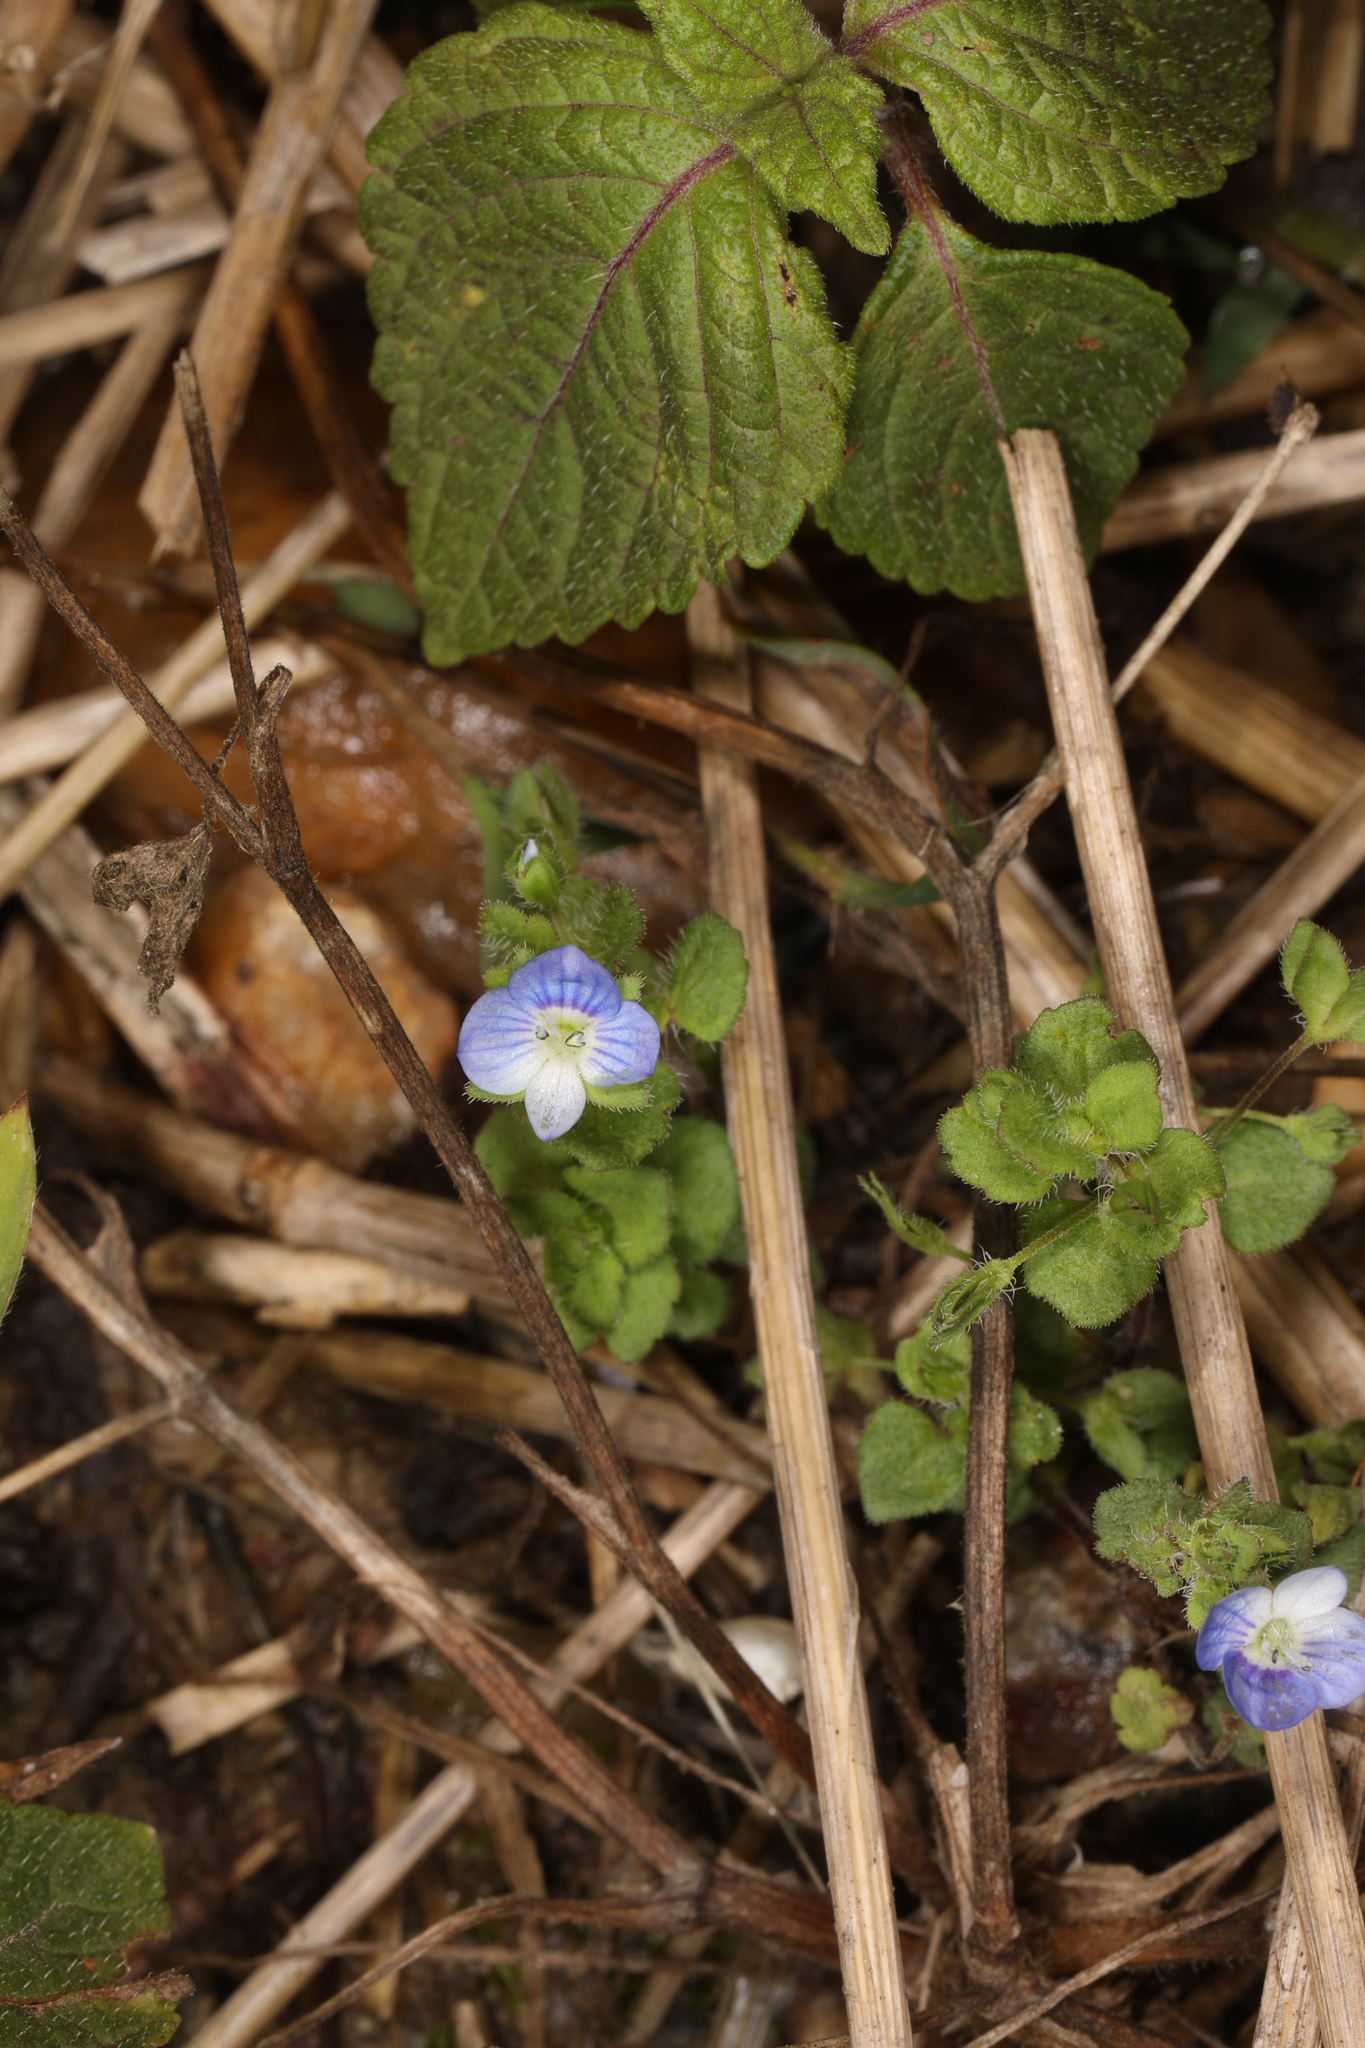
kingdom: Plantae
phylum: Tracheophyta
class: Magnoliopsida
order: Lamiales
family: Plantaginaceae
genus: Veronica
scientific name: Veronica persica
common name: Common field-speedwell
